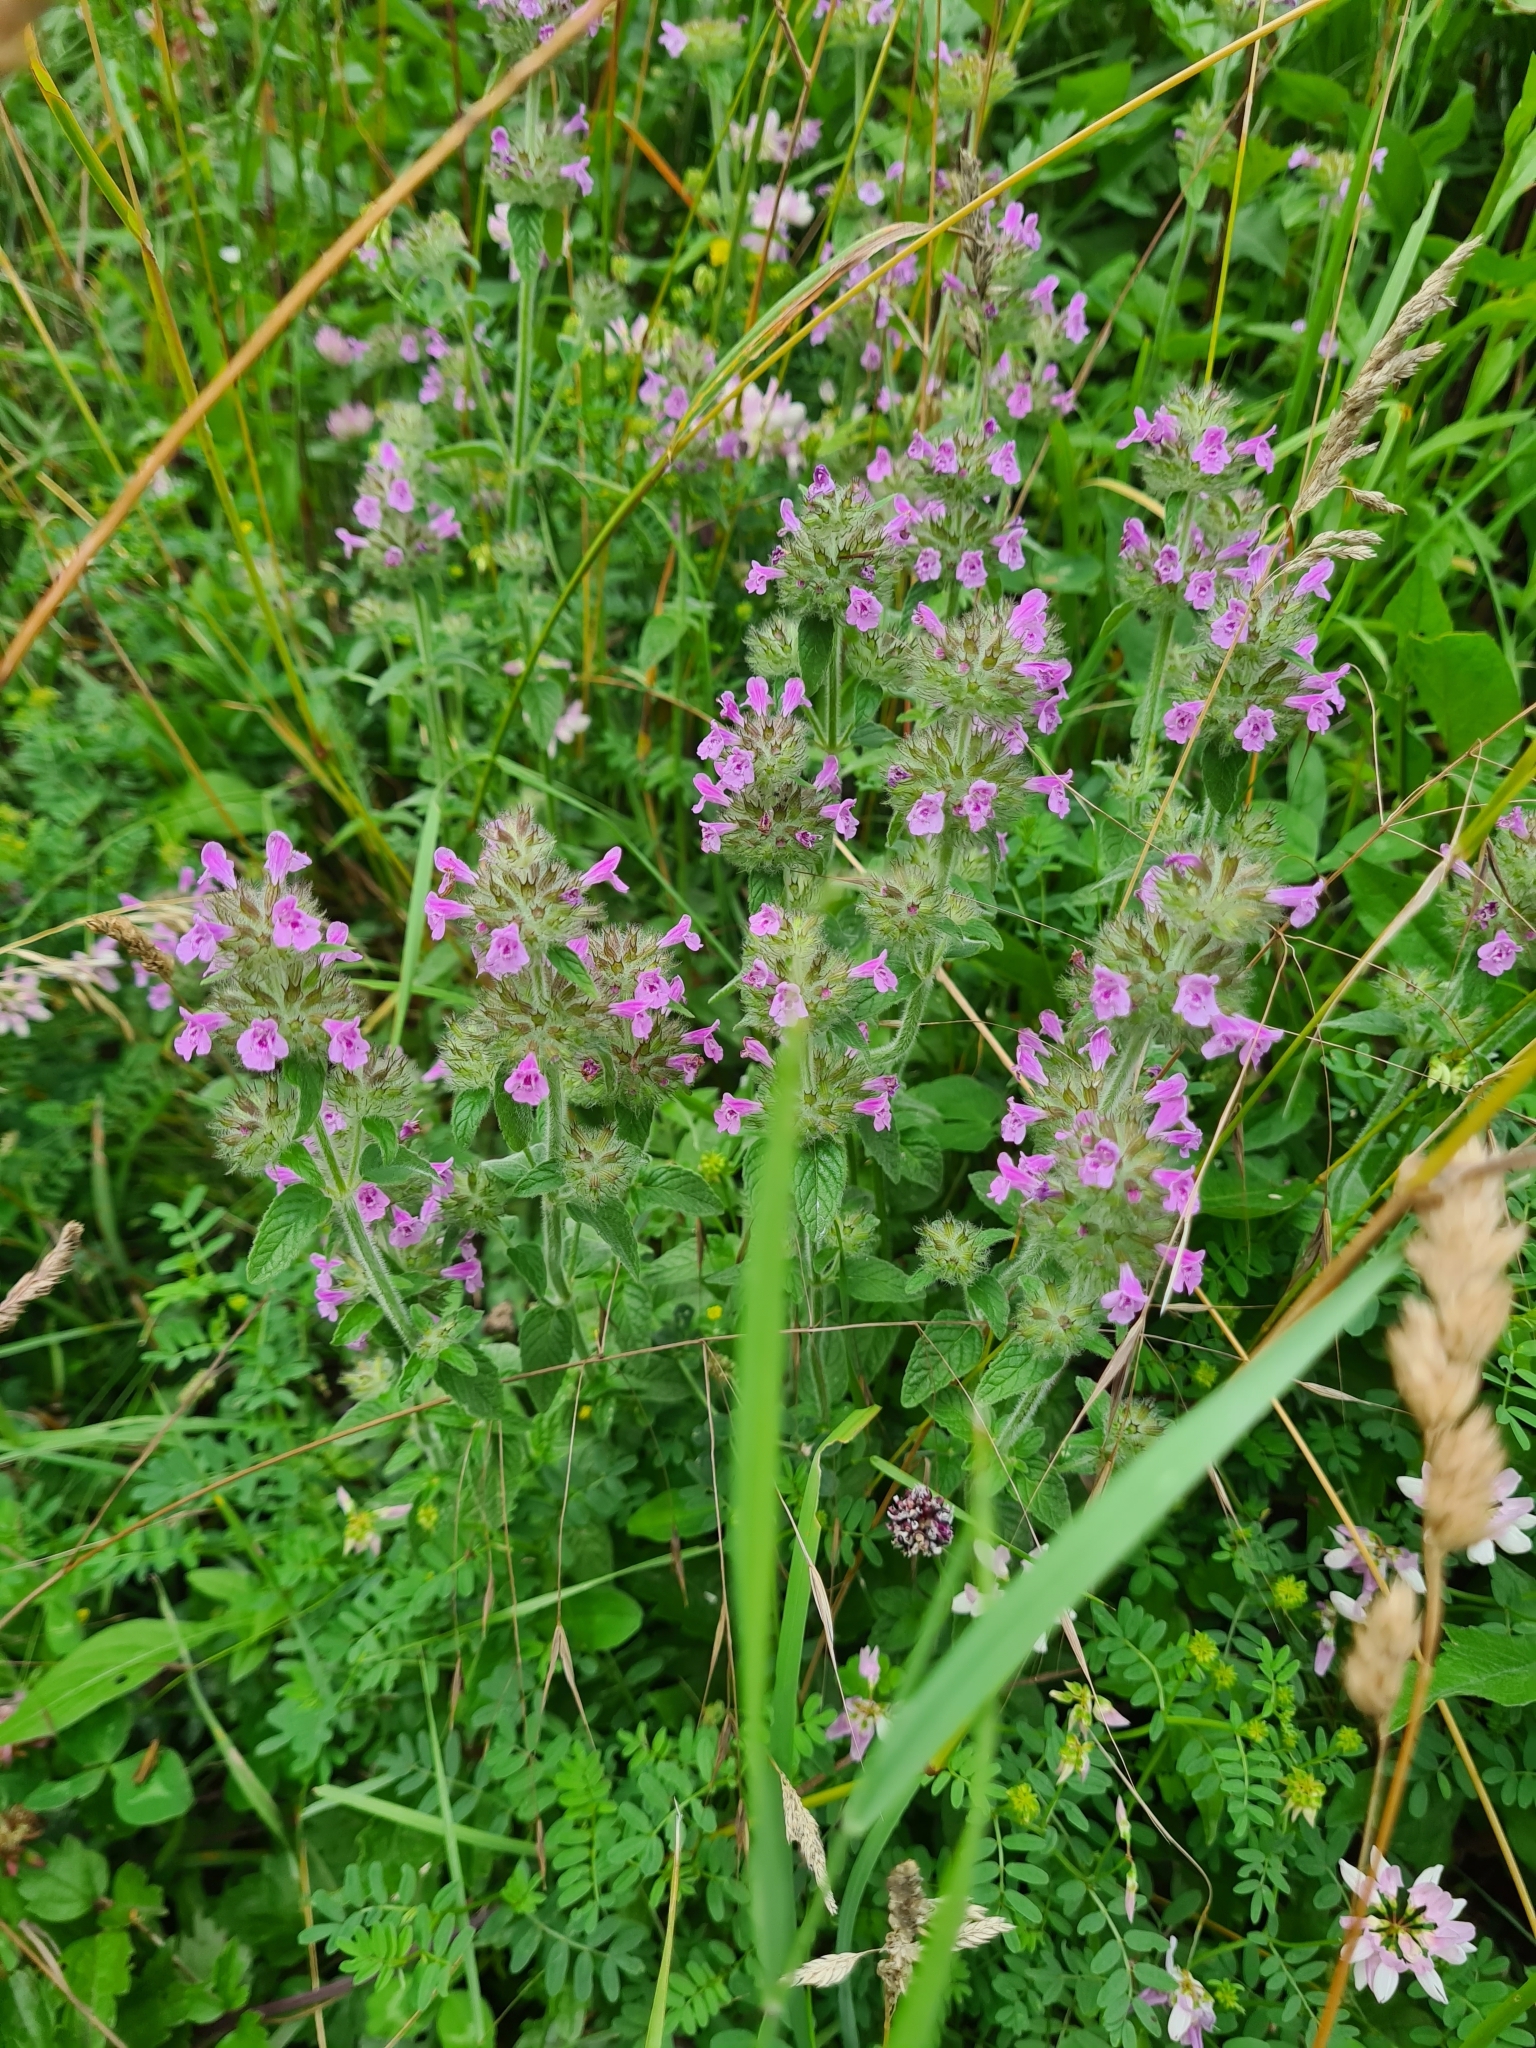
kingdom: Plantae
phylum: Tracheophyta
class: Magnoliopsida
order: Lamiales
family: Lamiaceae
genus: Clinopodium
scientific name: Clinopodium vulgare
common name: Wild basil
